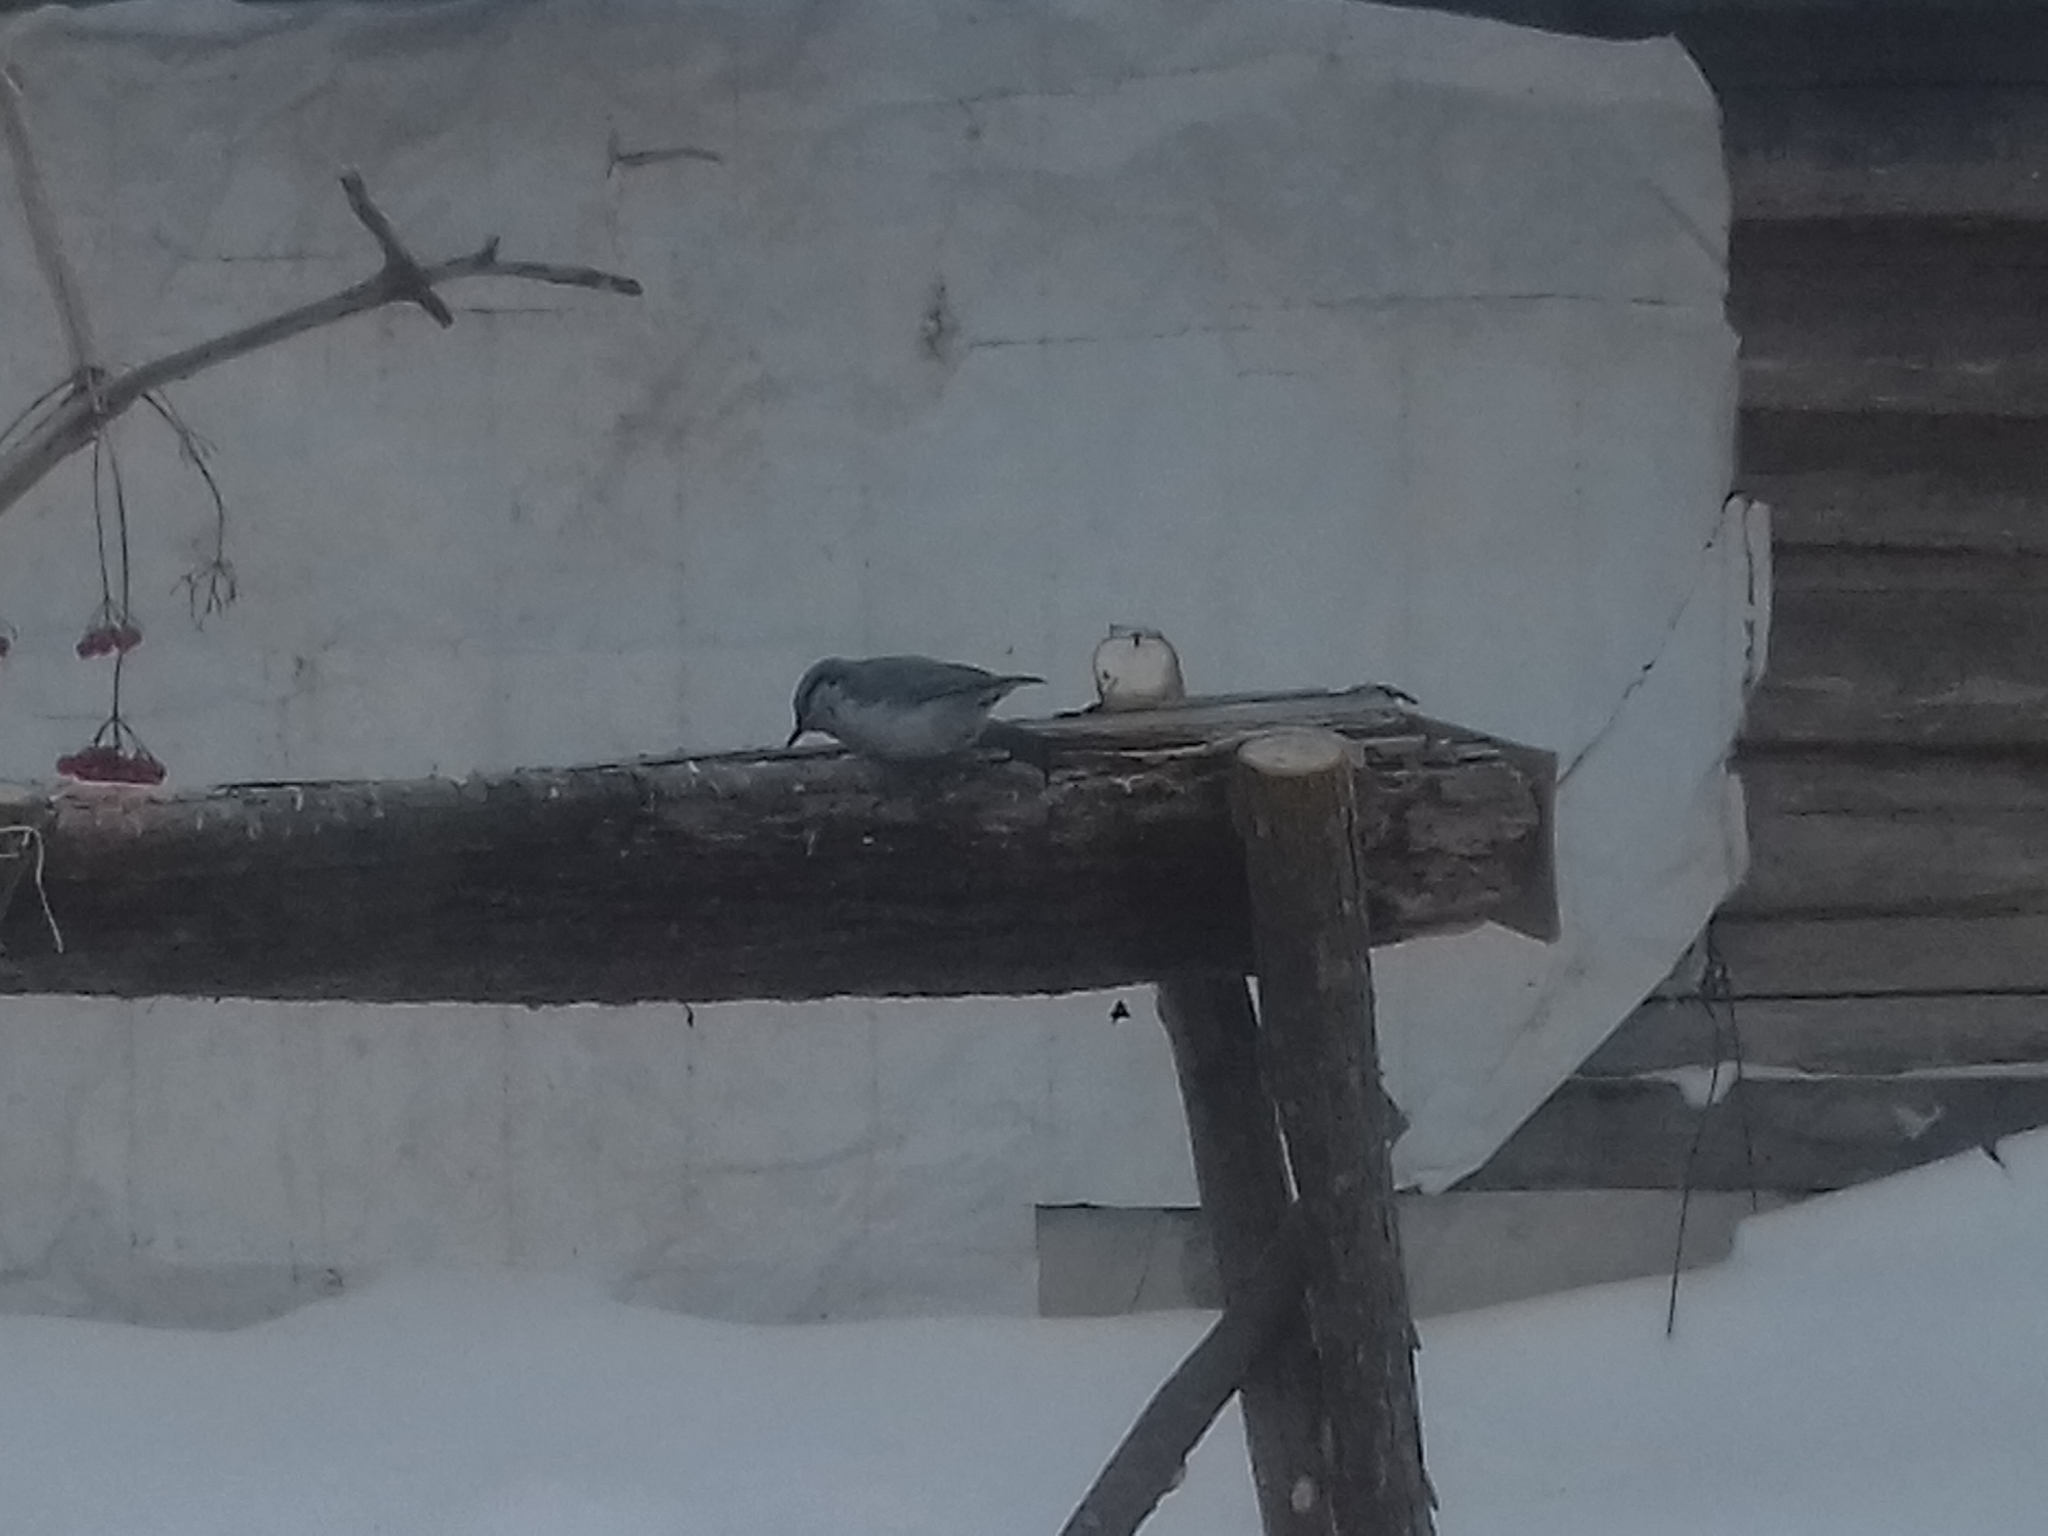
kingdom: Animalia
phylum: Chordata
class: Aves
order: Passeriformes
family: Sittidae
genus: Sitta
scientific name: Sitta europaea
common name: Eurasian nuthatch
